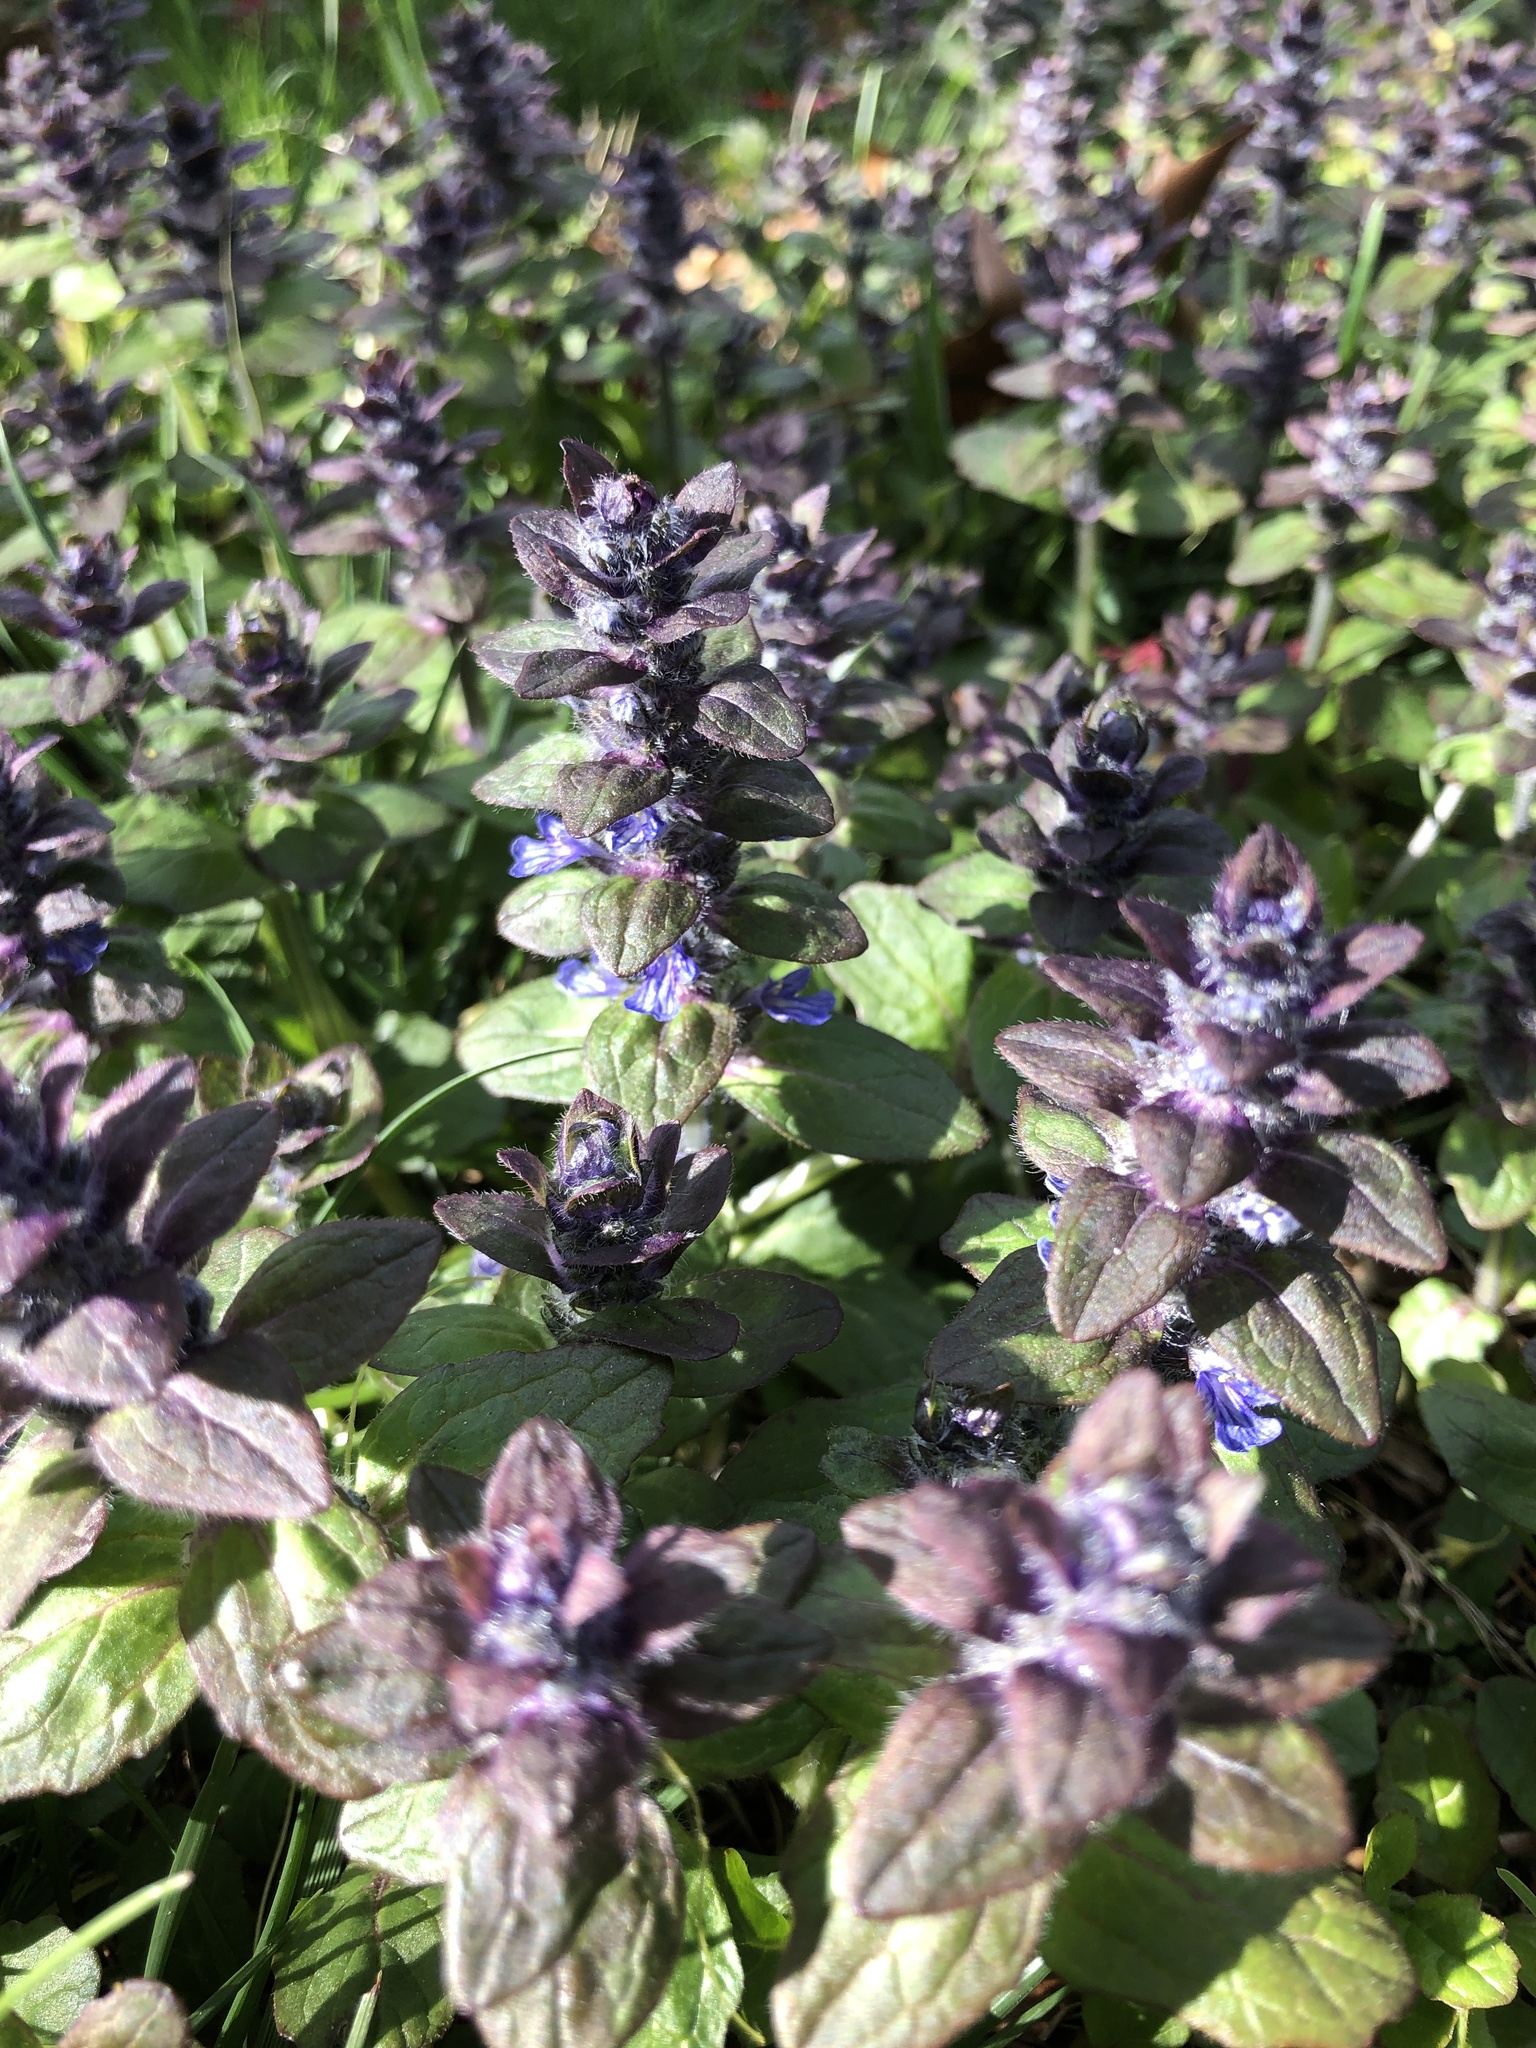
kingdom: Plantae
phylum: Tracheophyta
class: Magnoliopsida
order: Lamiales
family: Lamiaceae
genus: Ajuga
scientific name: Ajuga reptans
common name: Bugle
